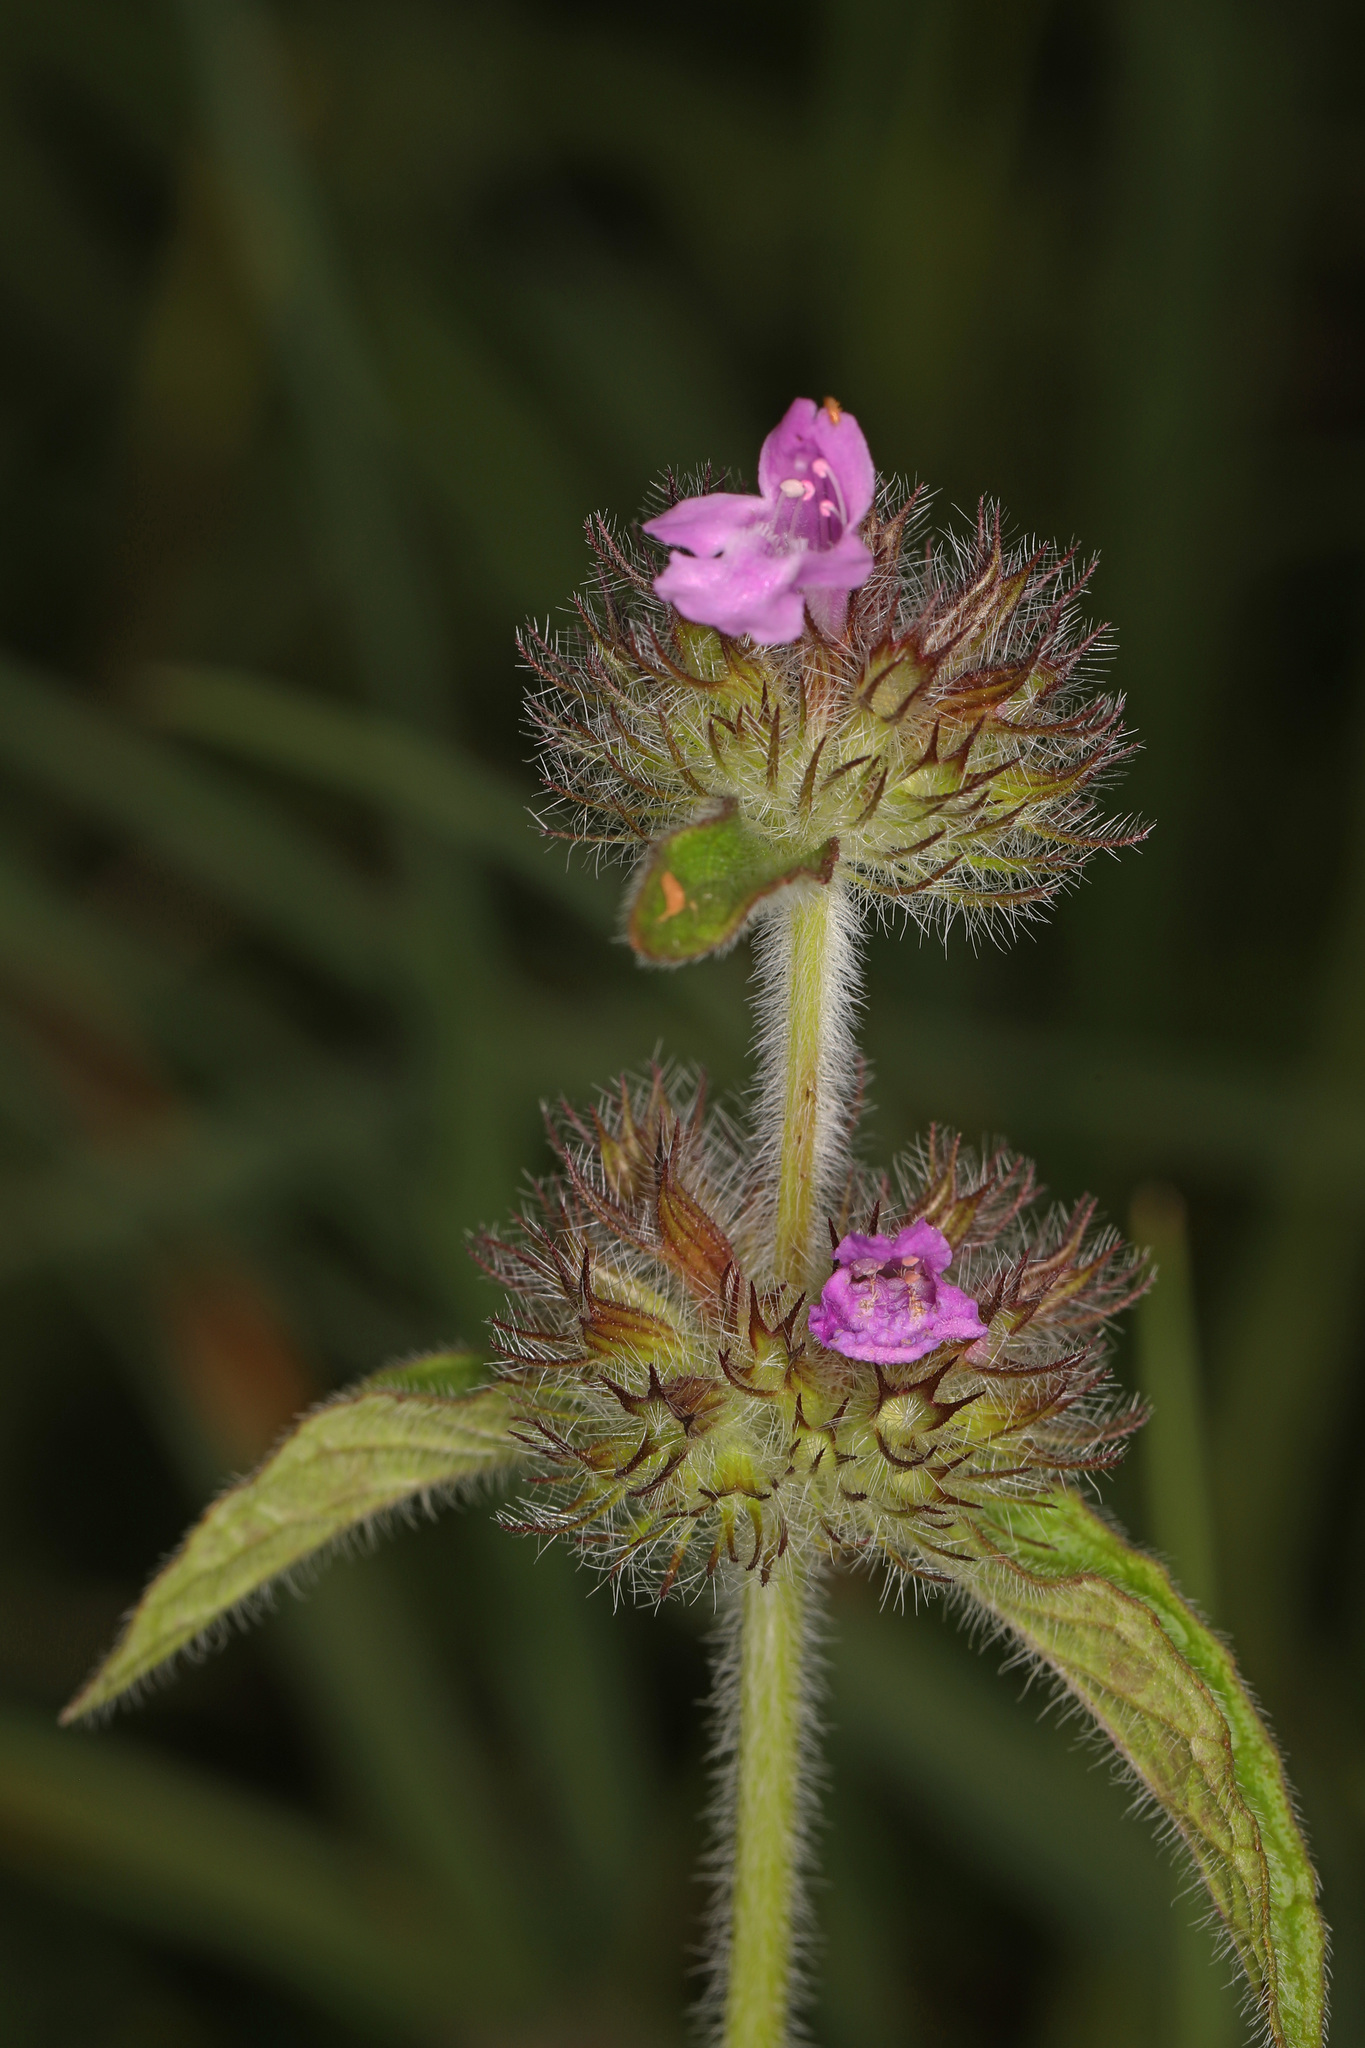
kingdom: Plantae
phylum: Tracheophyta
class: Magnoliopsida
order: Lamiales
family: Lamiaceae
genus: Clinopodium
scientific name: Clinopodium vulgare
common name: Wild basil
